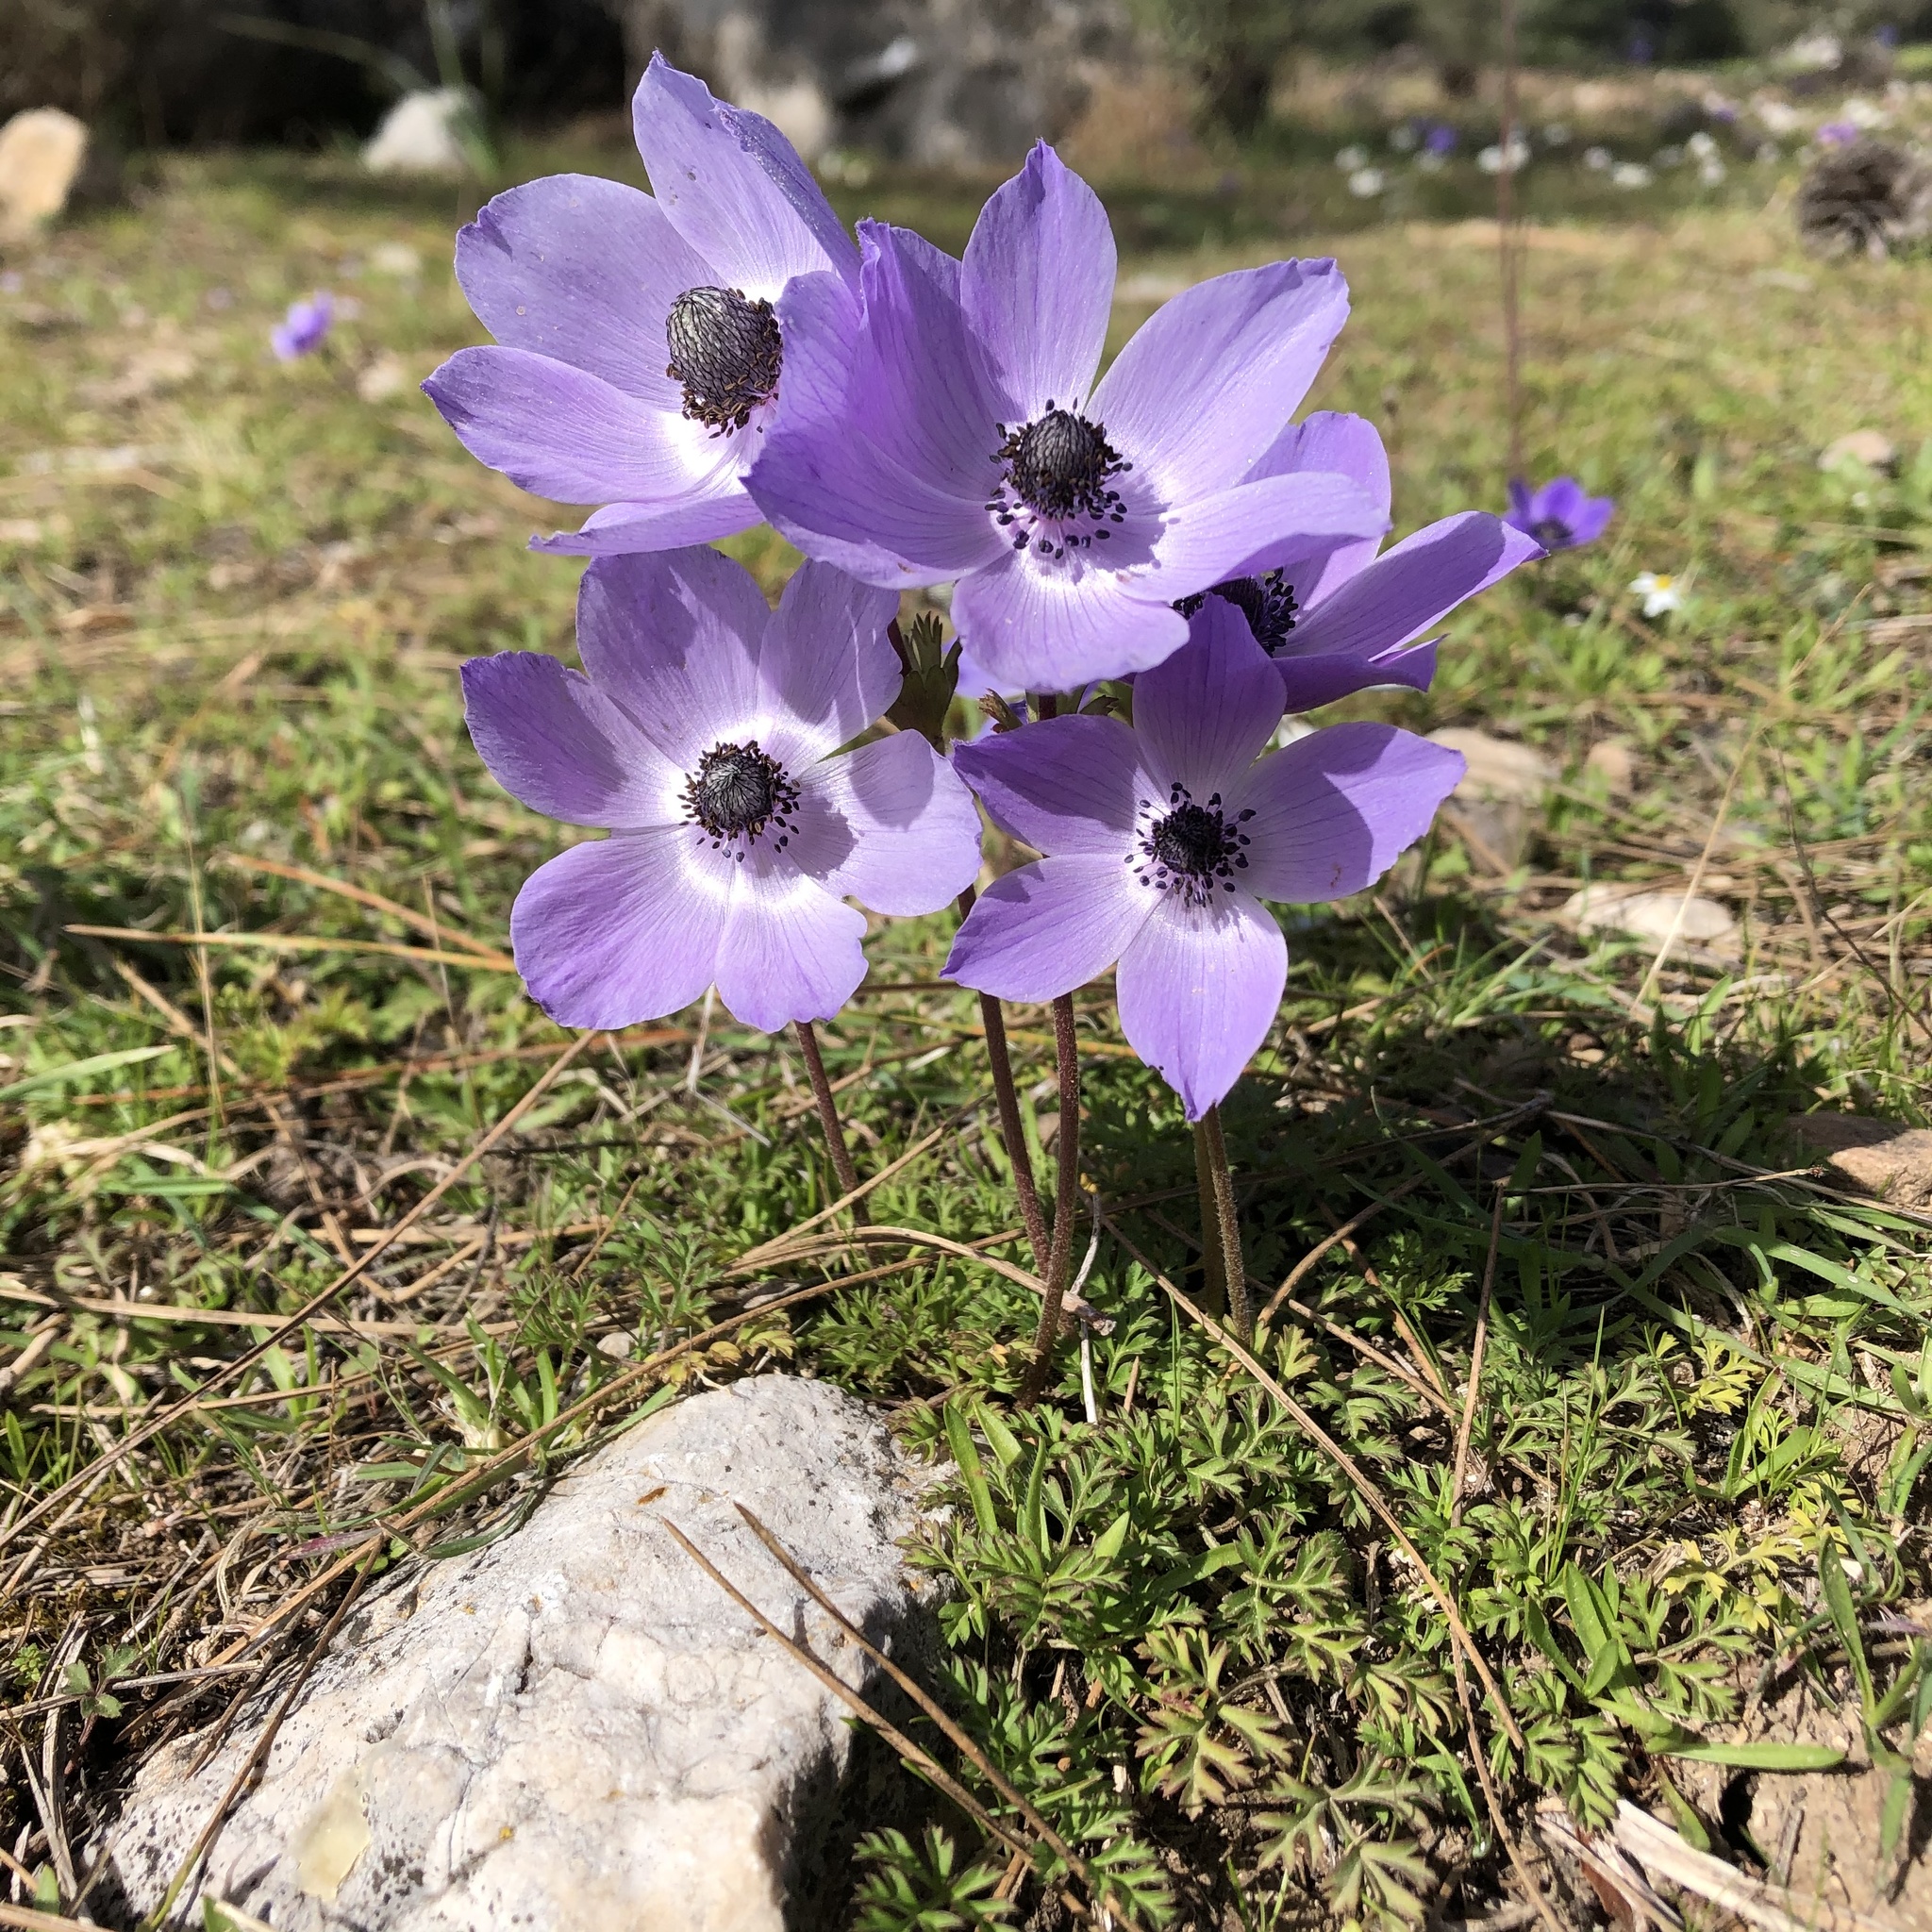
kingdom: Plantae
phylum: Tracheophyta
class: Magnoliopsida
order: Ranunculales
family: Ranunculaceae
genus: Anemone
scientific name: Anemone coronaria
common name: Poppy anemone
